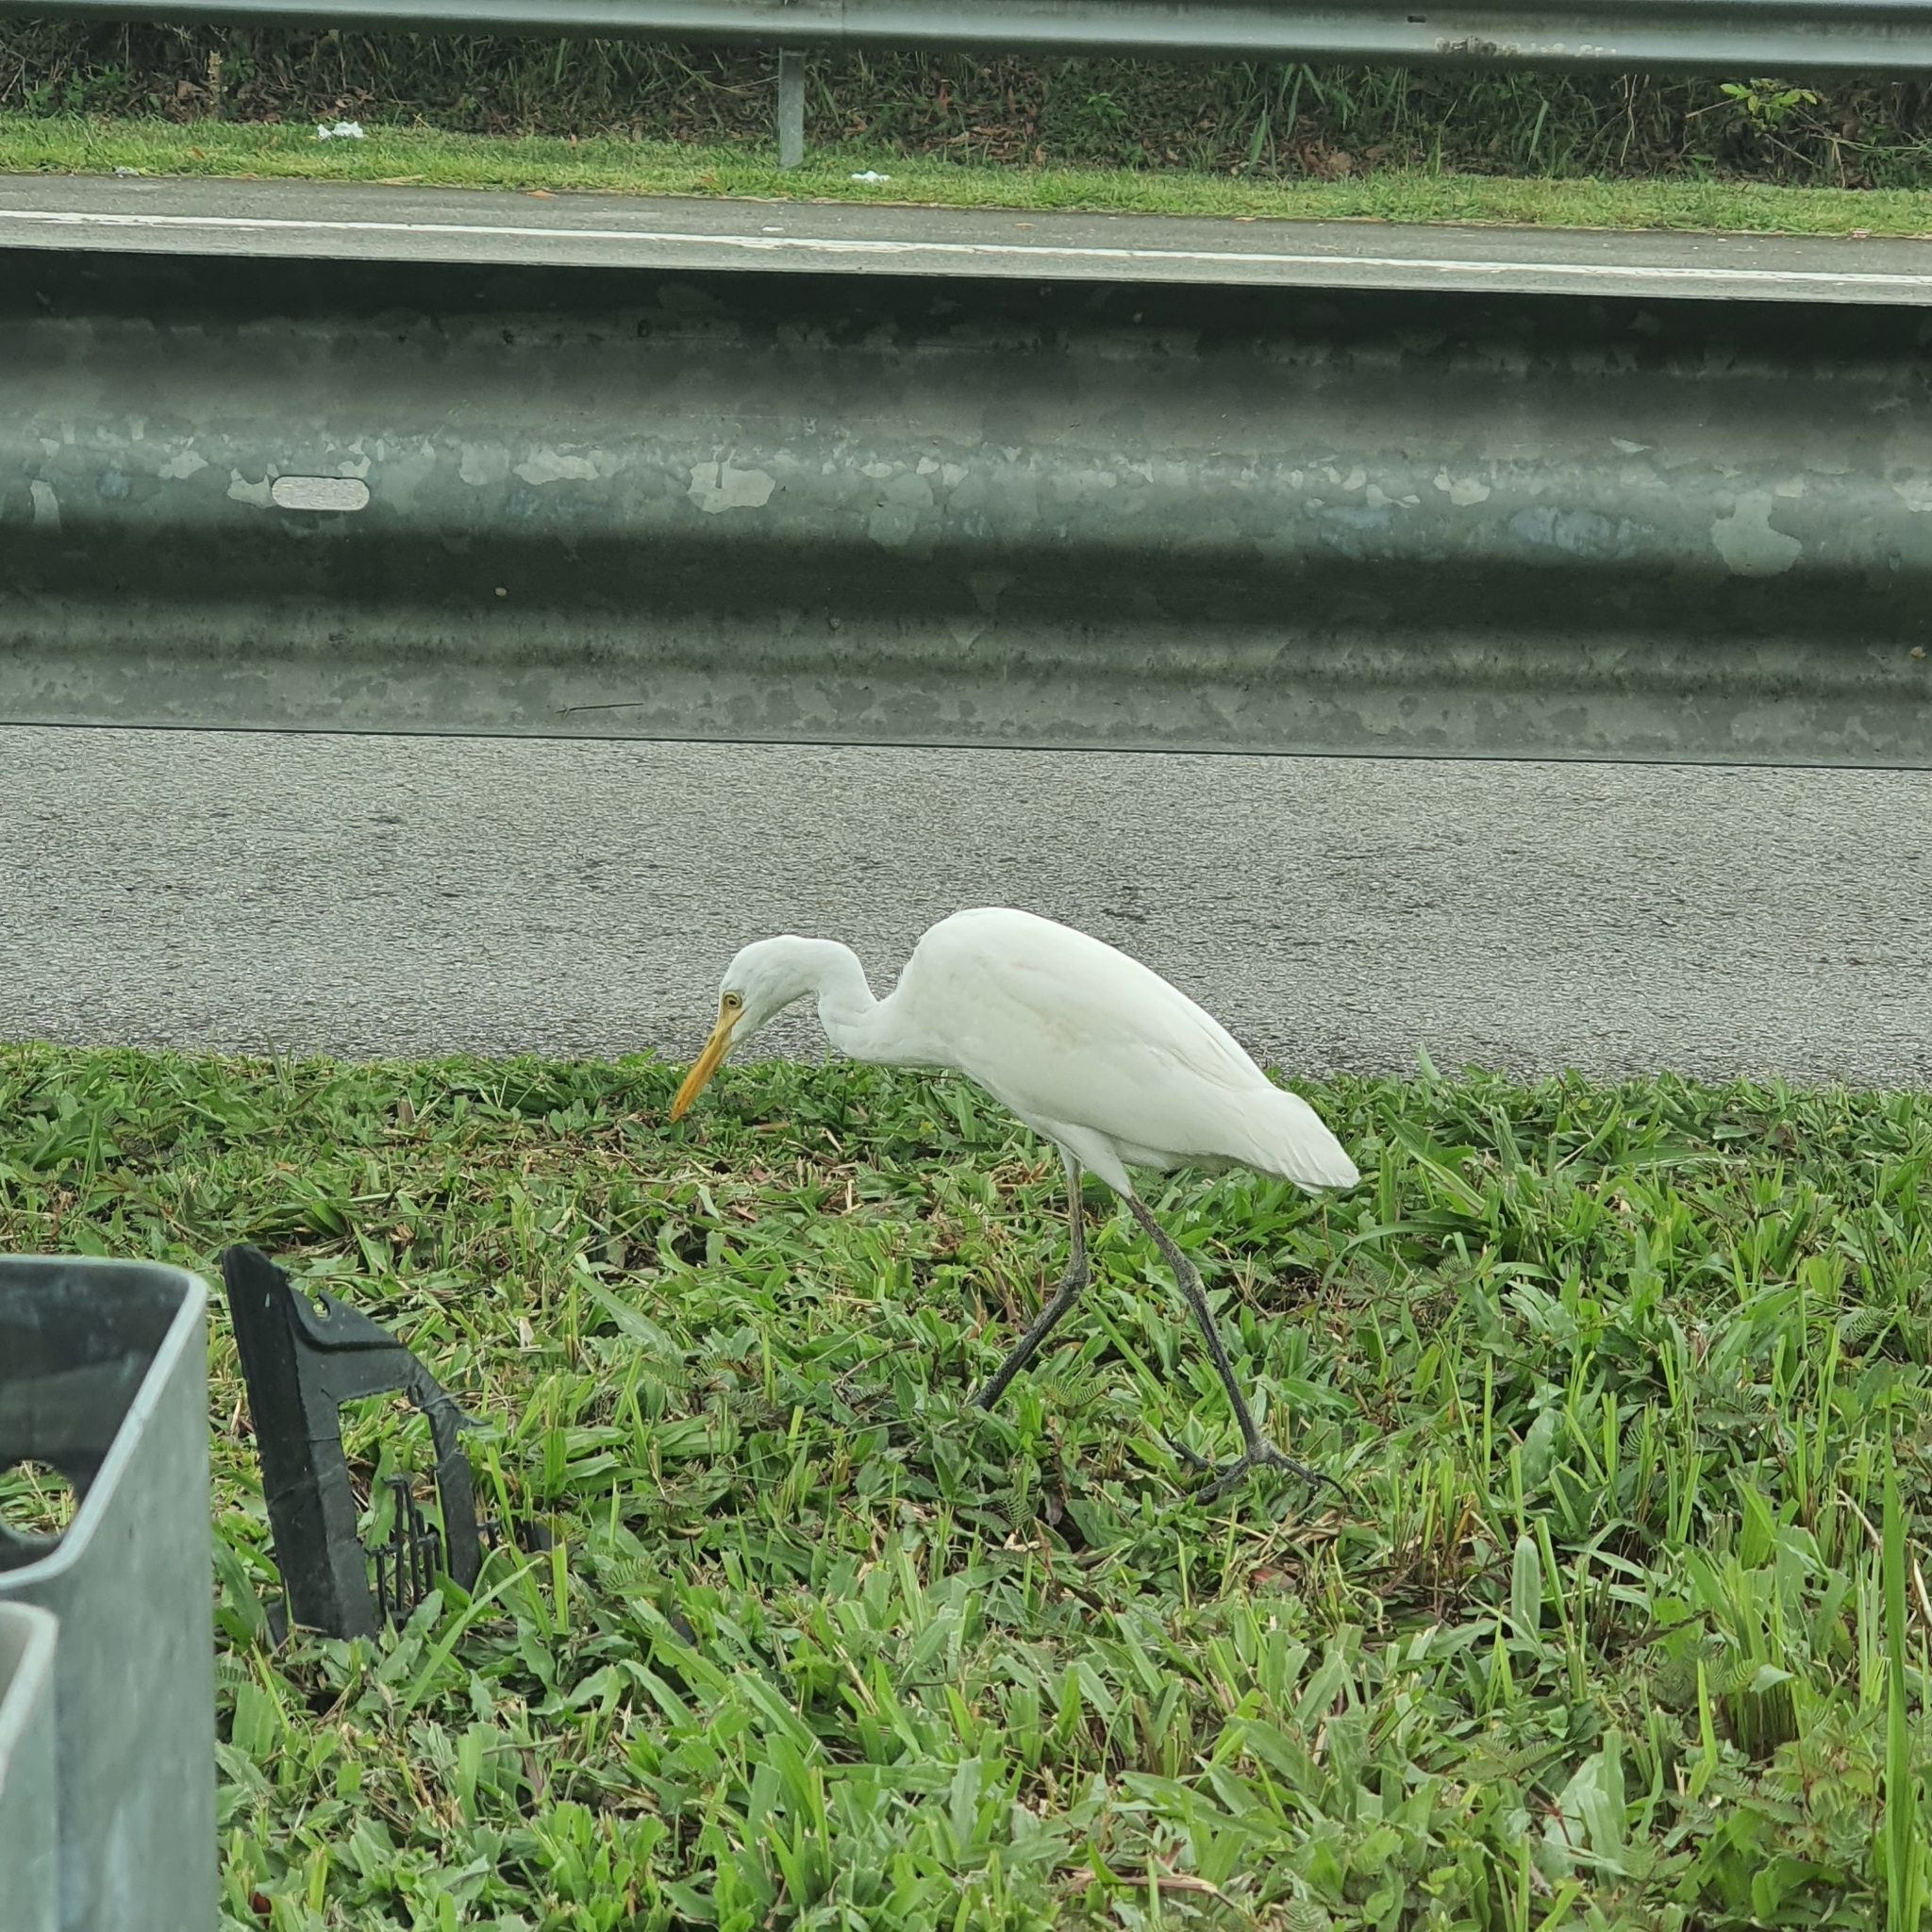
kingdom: Animalia
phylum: Chordata
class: Aves
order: Pelecaniformes
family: Ardeidae
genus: Bubulcus
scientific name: Bubulcus coromandus
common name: Eastern cattle egret
